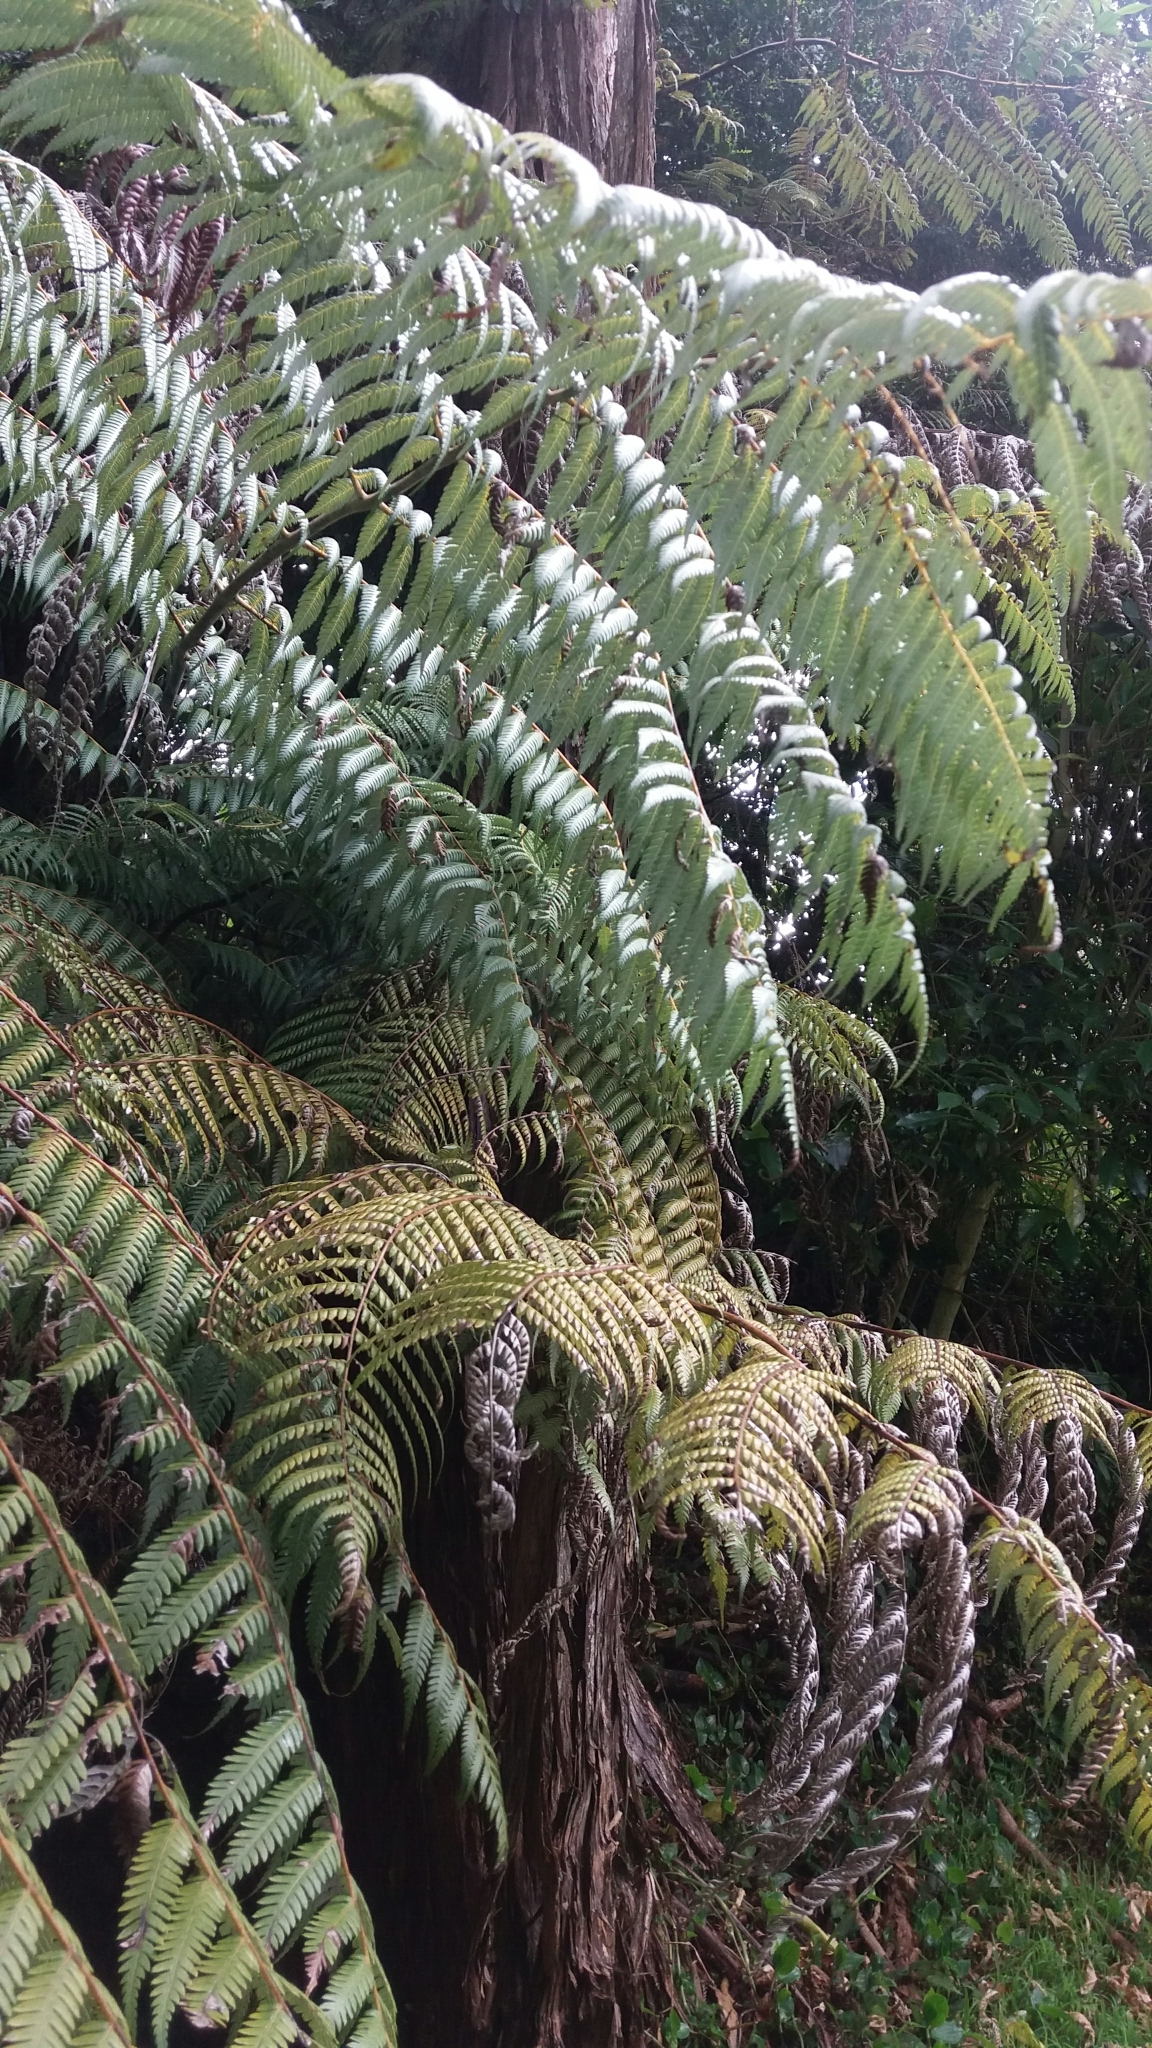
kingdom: Plantae
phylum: Tracheophyta
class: Polypodiopsida
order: Cyatheales
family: Cyatheaceae
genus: Alsophila
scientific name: Alsophila dealbata
